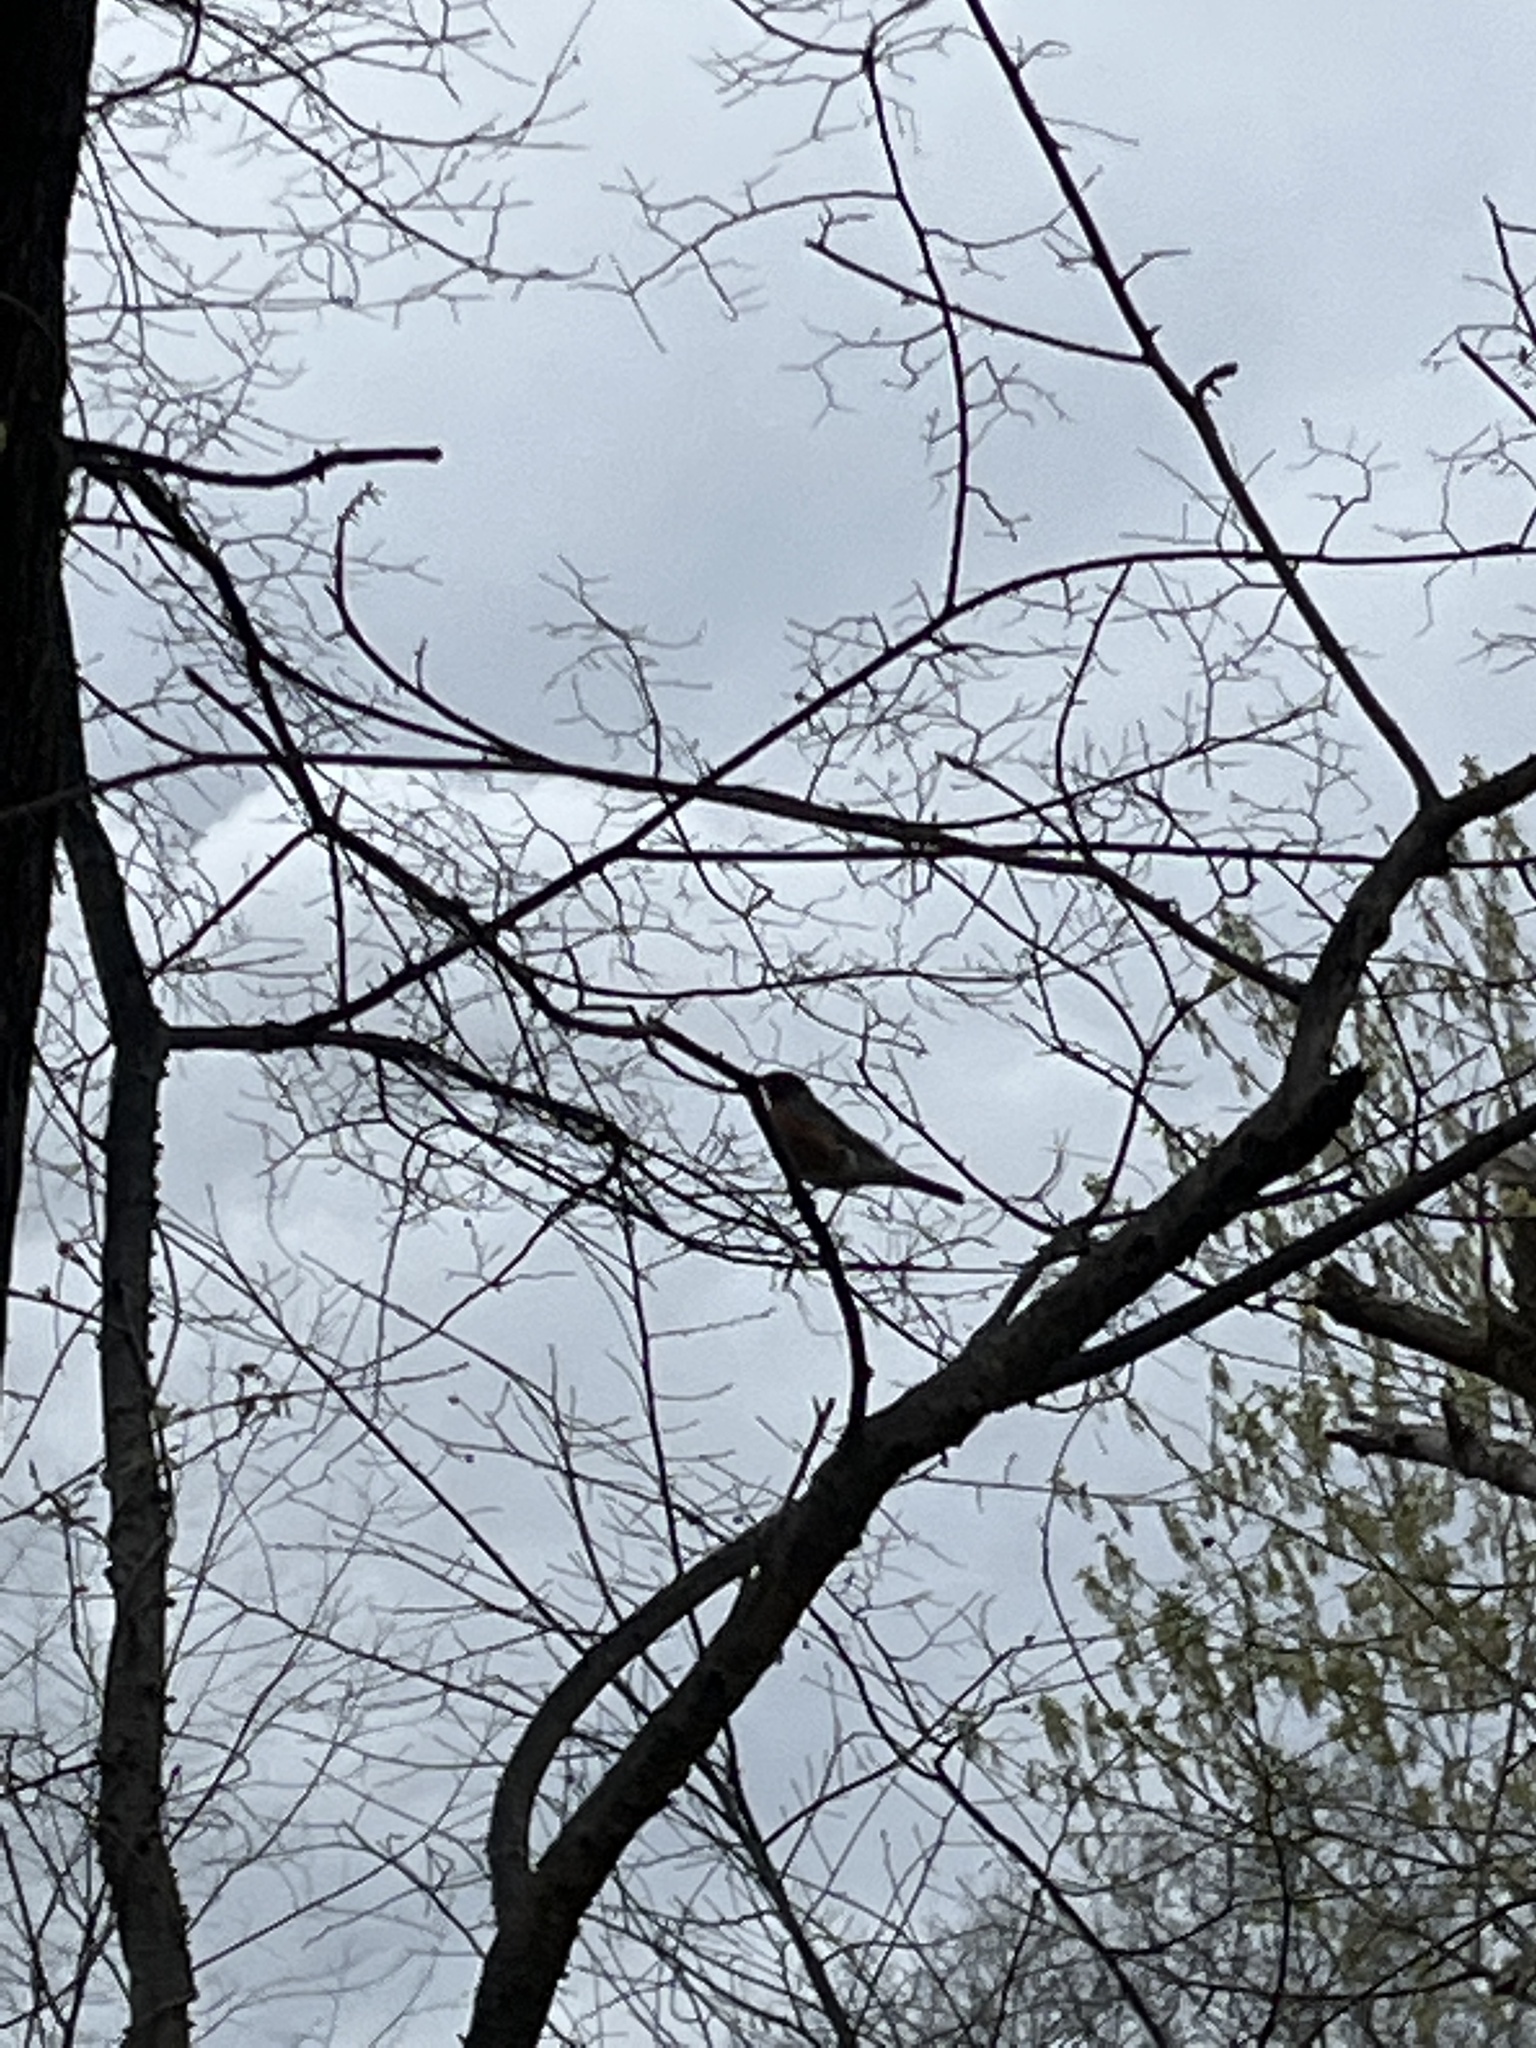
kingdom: Animalia
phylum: Chordata
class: Aves
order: Passeriformes
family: Turdidae
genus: Turdus
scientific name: Turdus migratorius
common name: American robin
